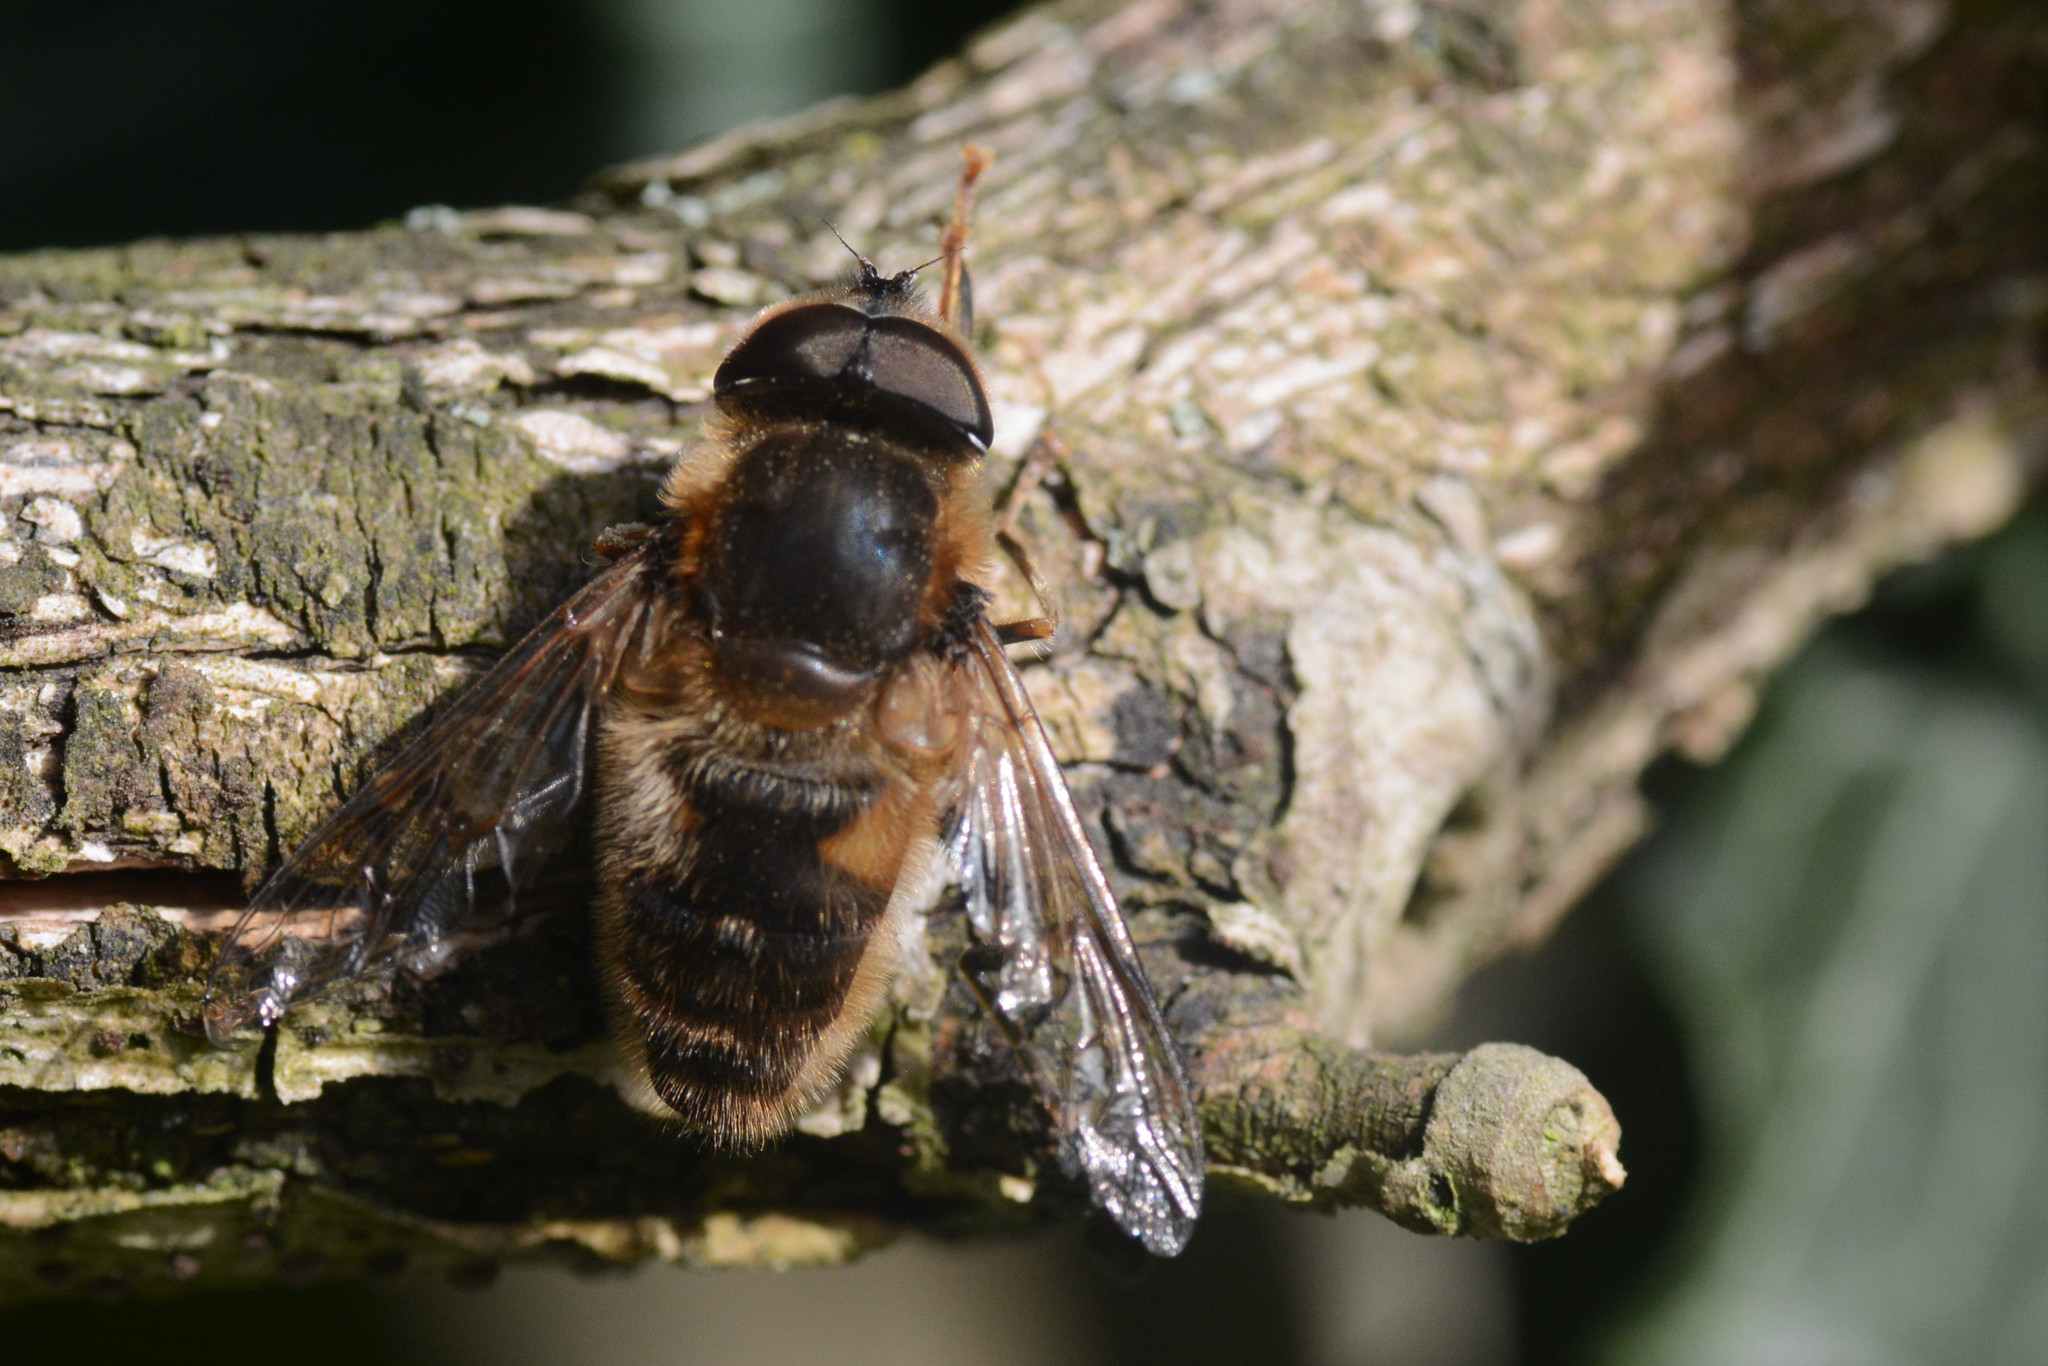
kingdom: Animalia
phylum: Arthropoda
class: Insecta
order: Diptera
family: Syrphidae
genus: Eristalis
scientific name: Eristalis pertinax
